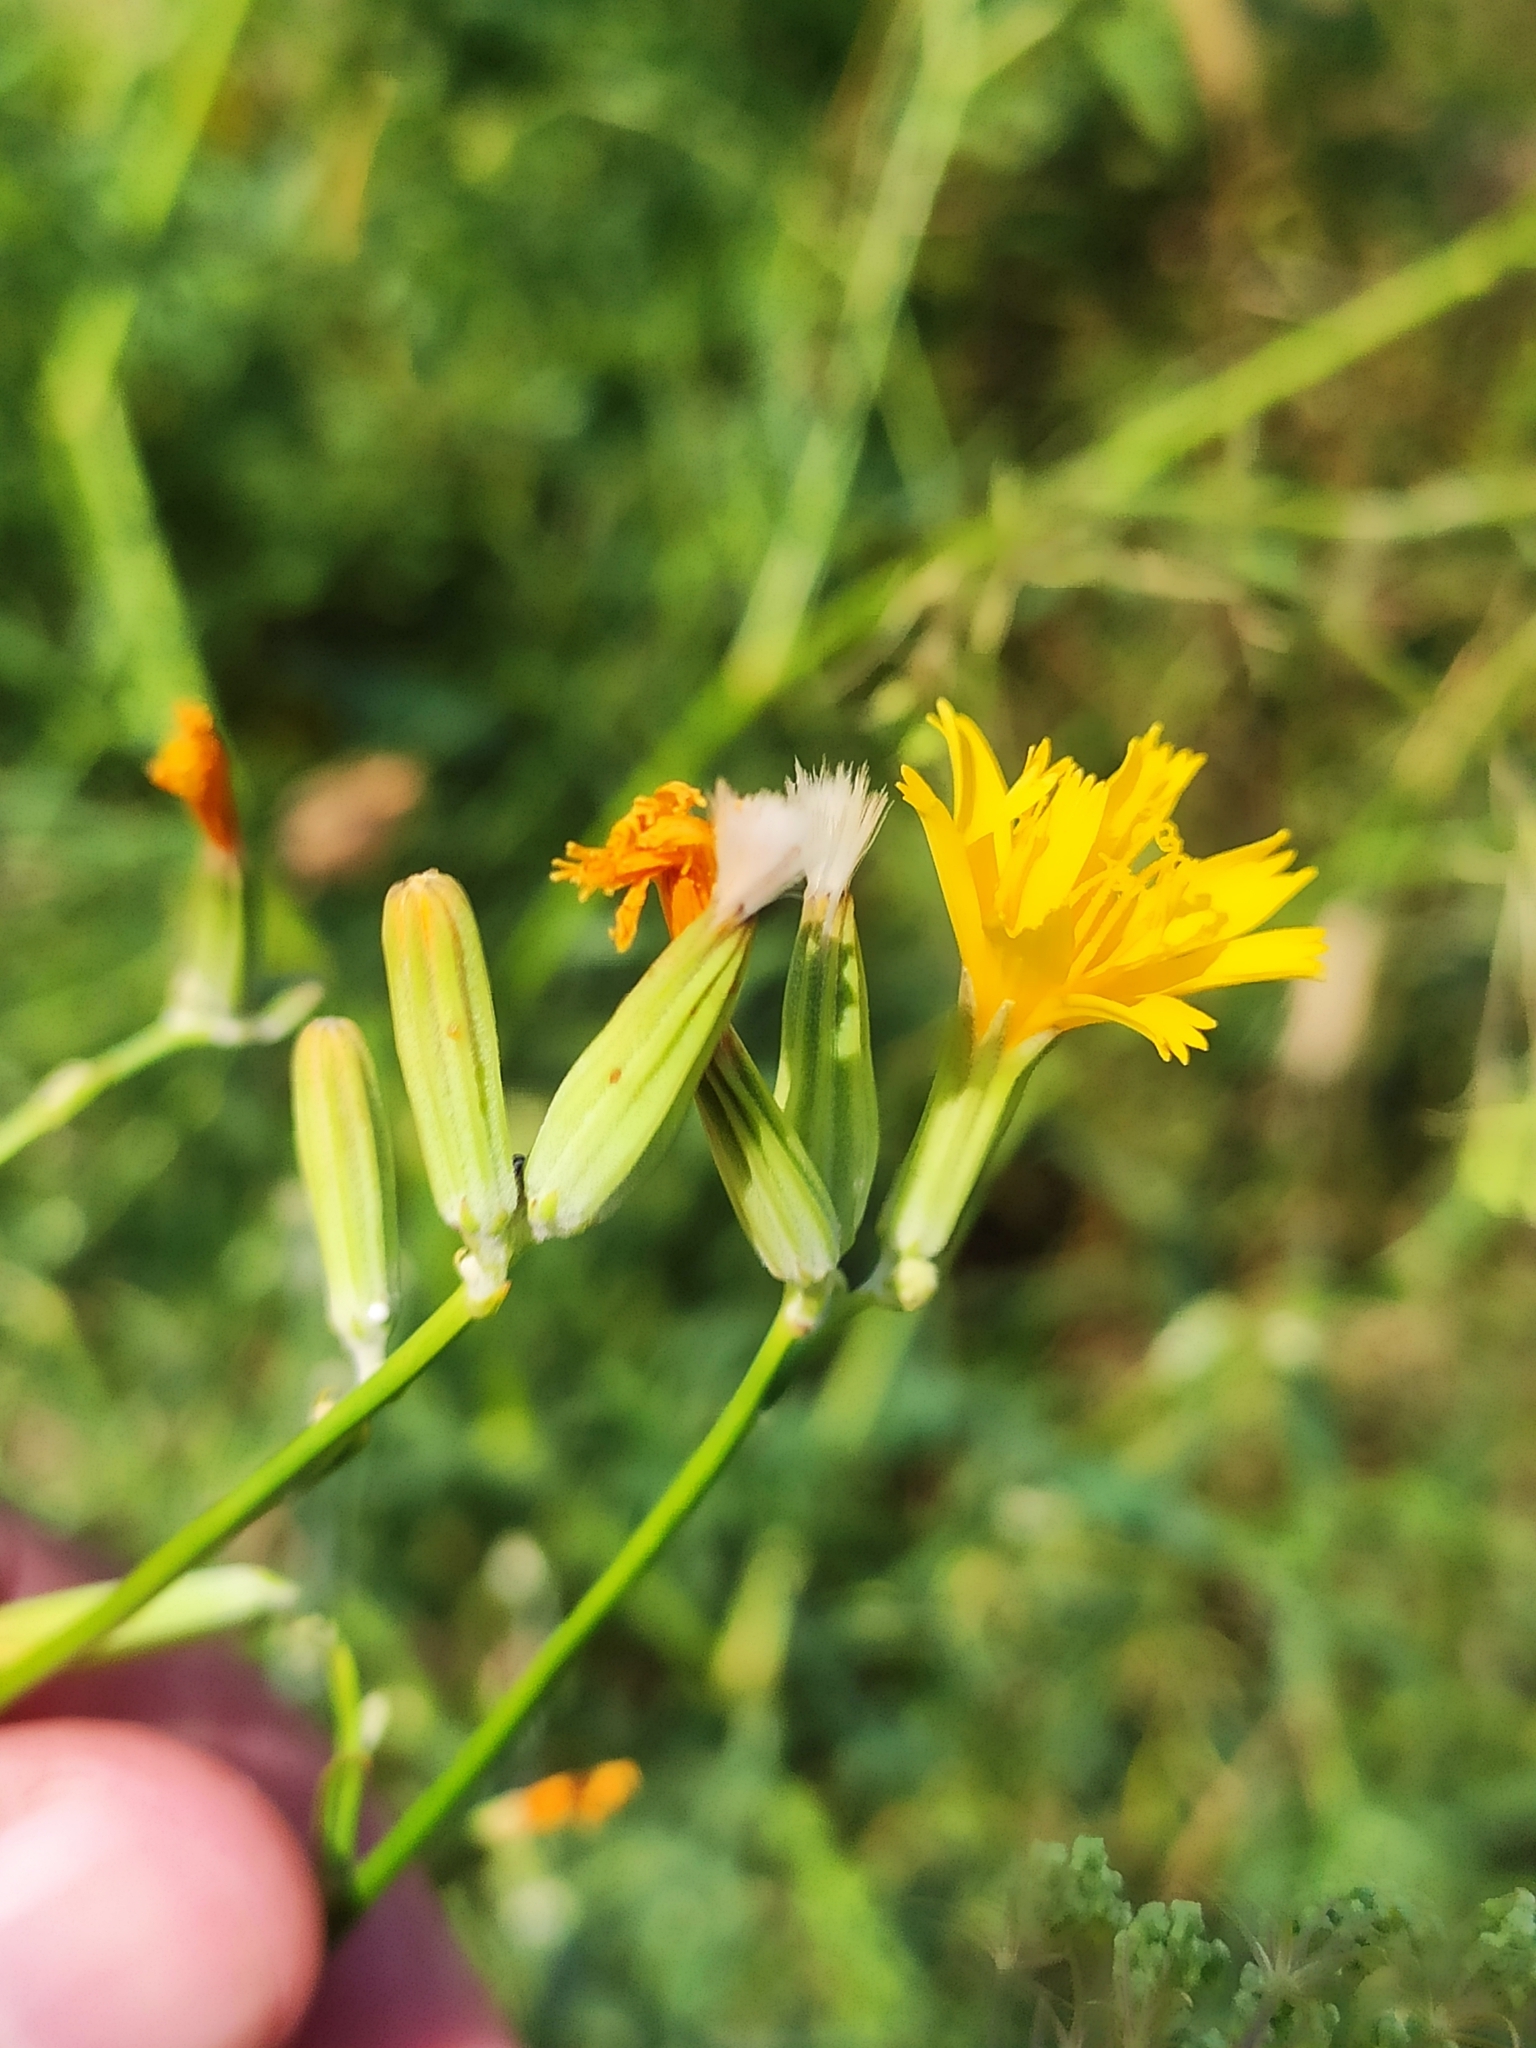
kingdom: Plantae
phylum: Tracheophyta
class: Magnoliopsida
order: Asterales
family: Asteraceae
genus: Chondrilla
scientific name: Chondrilla juncea
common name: Skeleton weed
